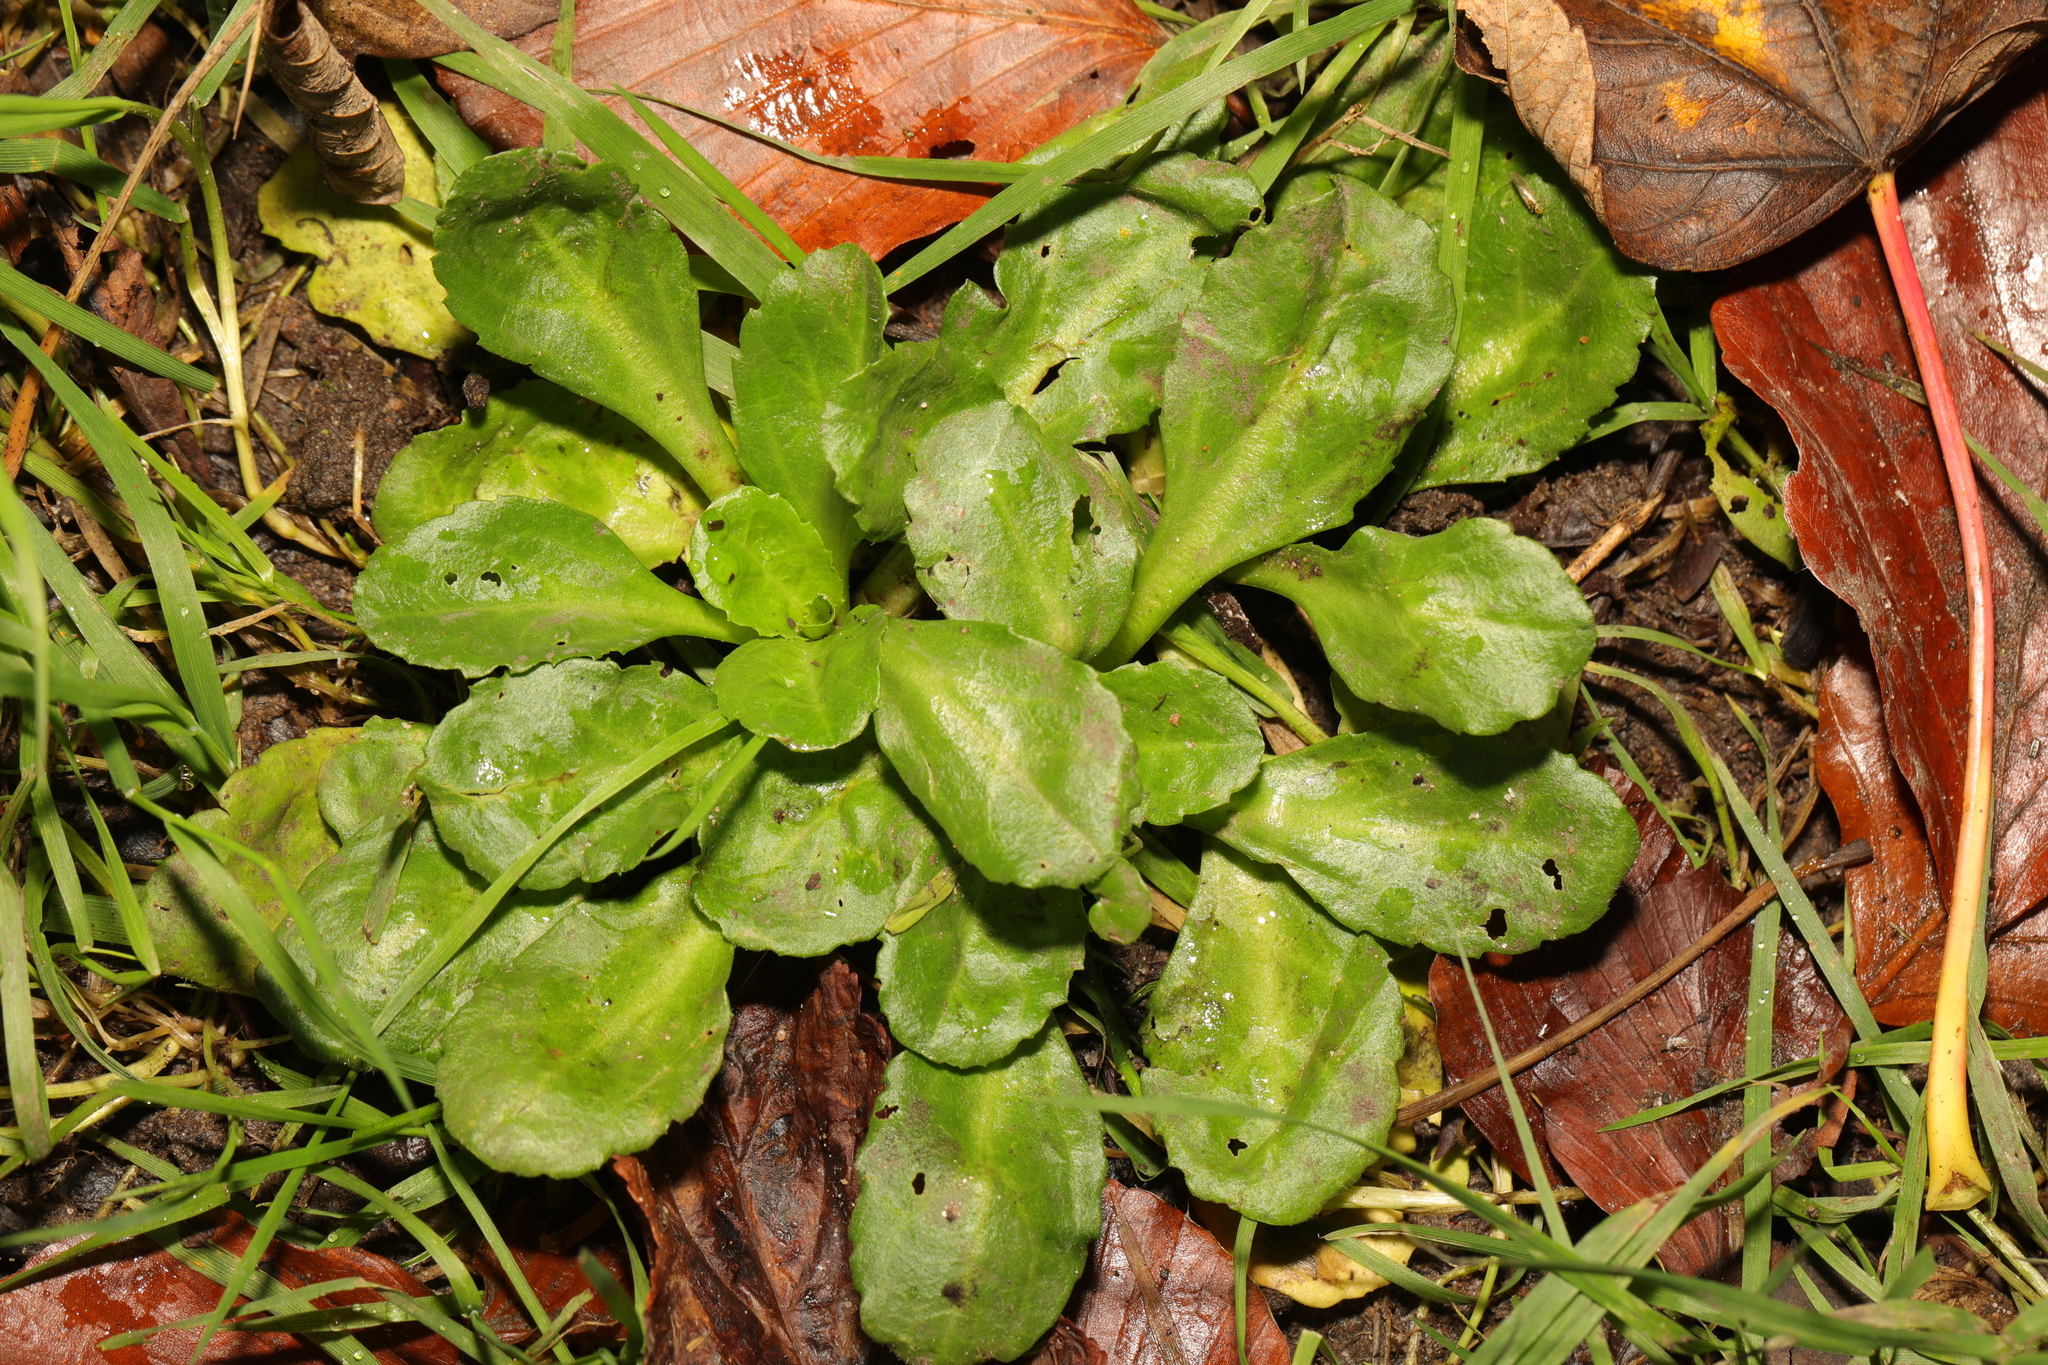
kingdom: Plantae
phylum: Tracheophyta
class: Magnoliopsida
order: Asterales
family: Asteraceae
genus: Bellis
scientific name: Bellis perennis
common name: Lawndaisy
